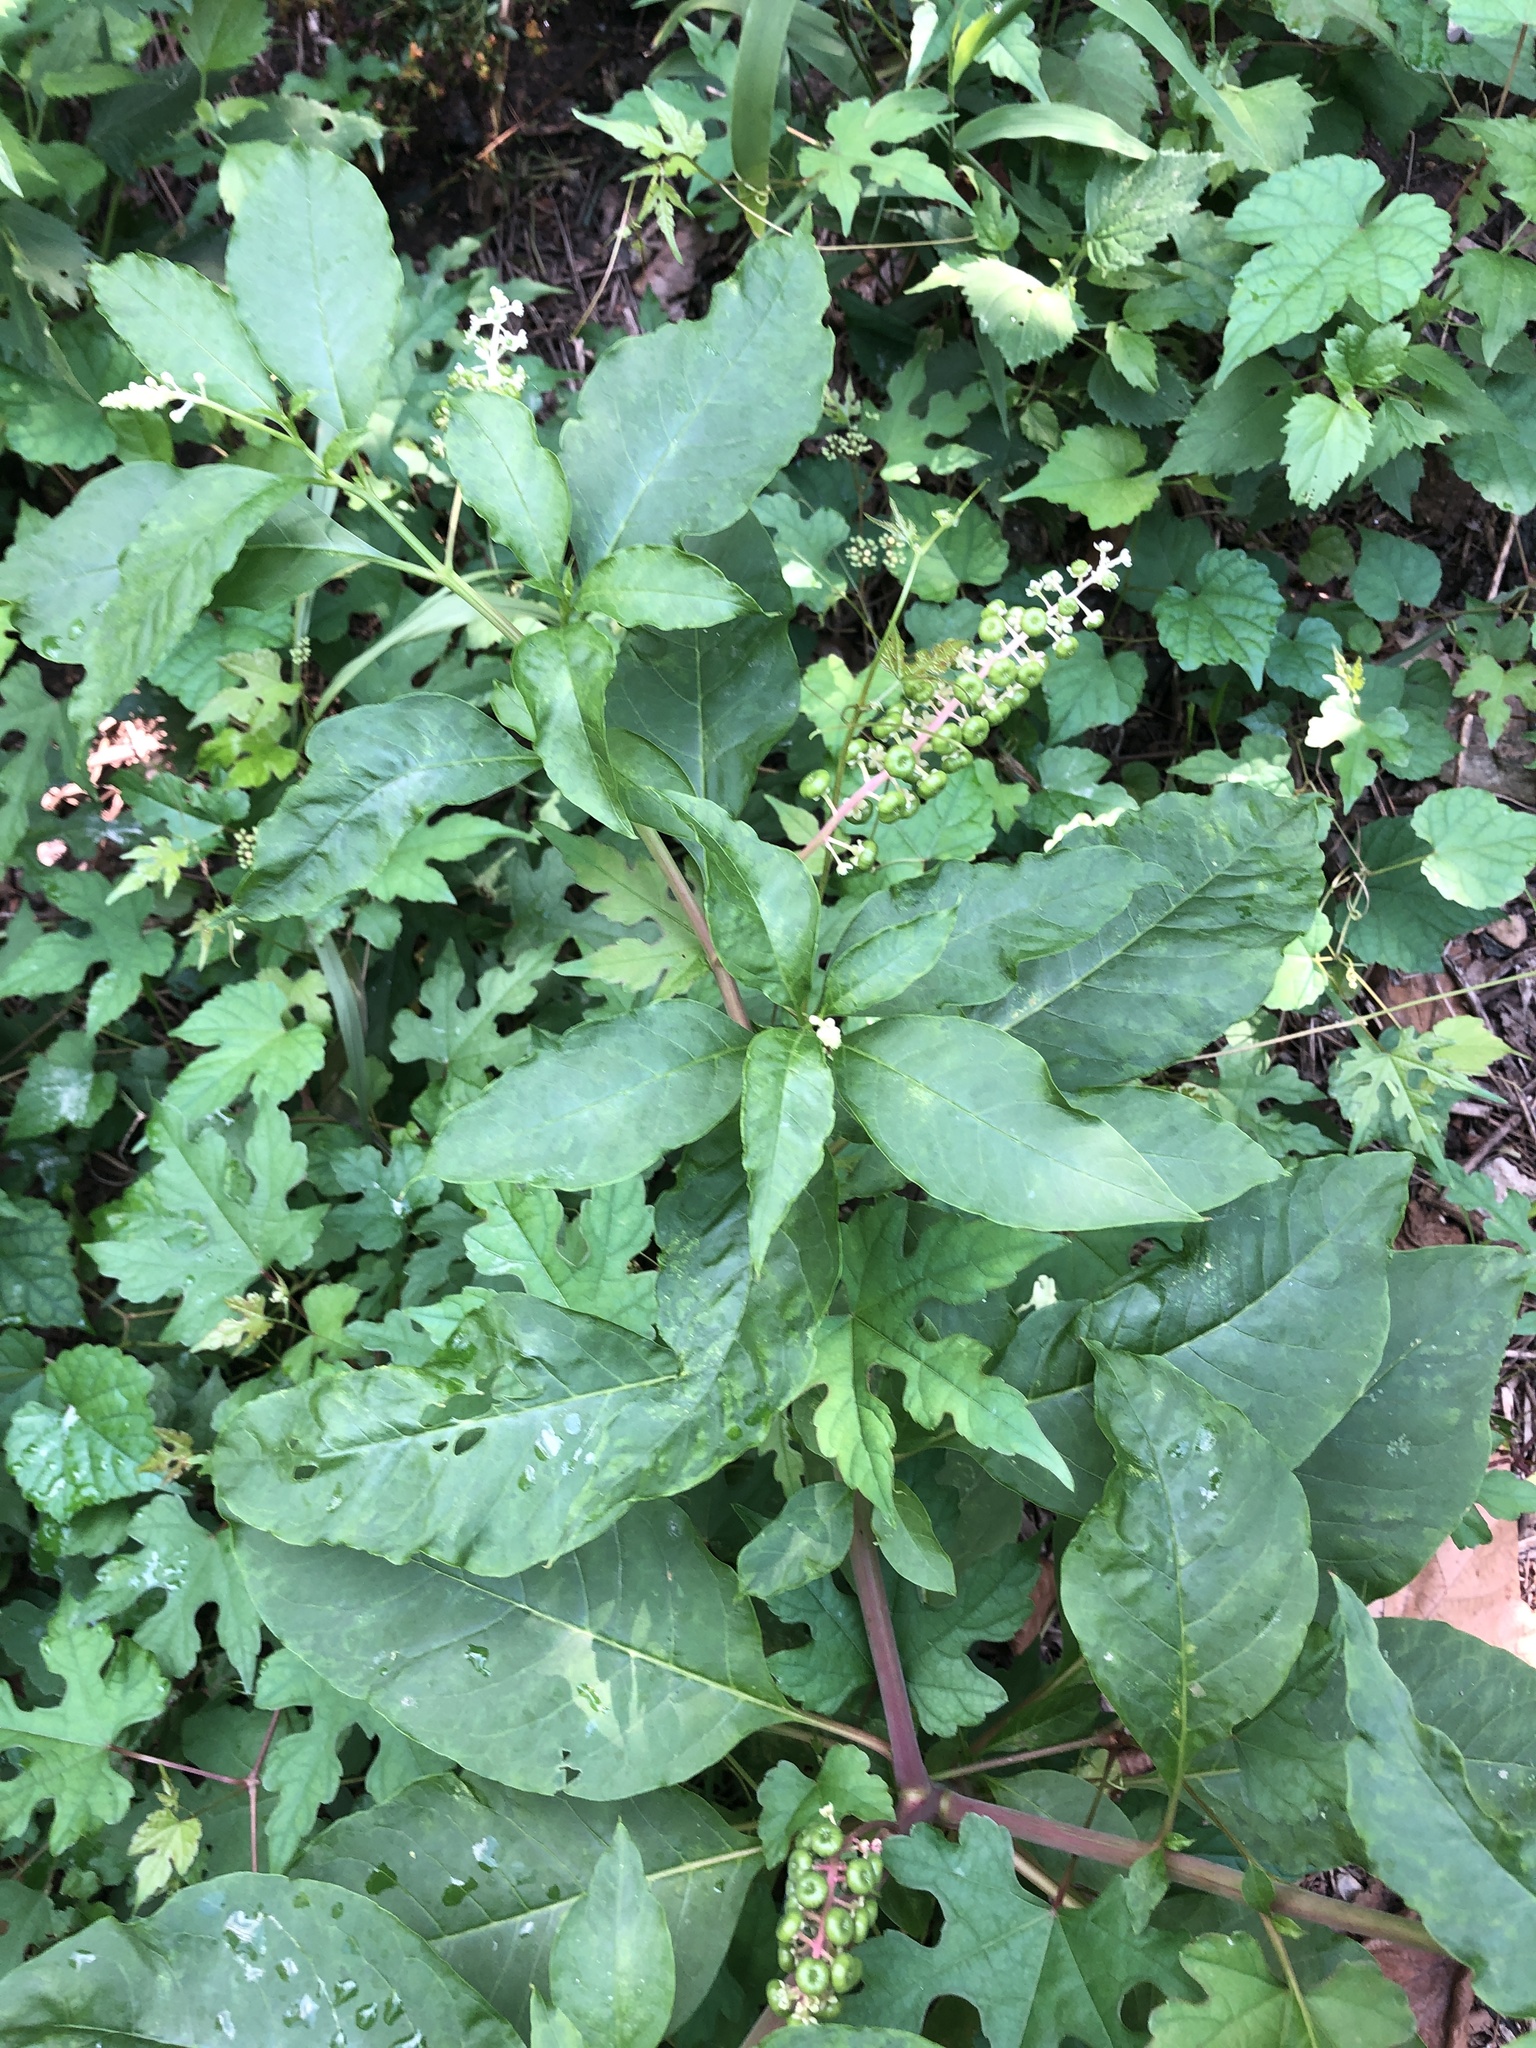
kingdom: Plantae
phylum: Tracheophyta
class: Magnoliopsida
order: Caryophyllales
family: Phytolaccaceae
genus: Phytolacca
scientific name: Phytolacca americana
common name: American pokeweed
